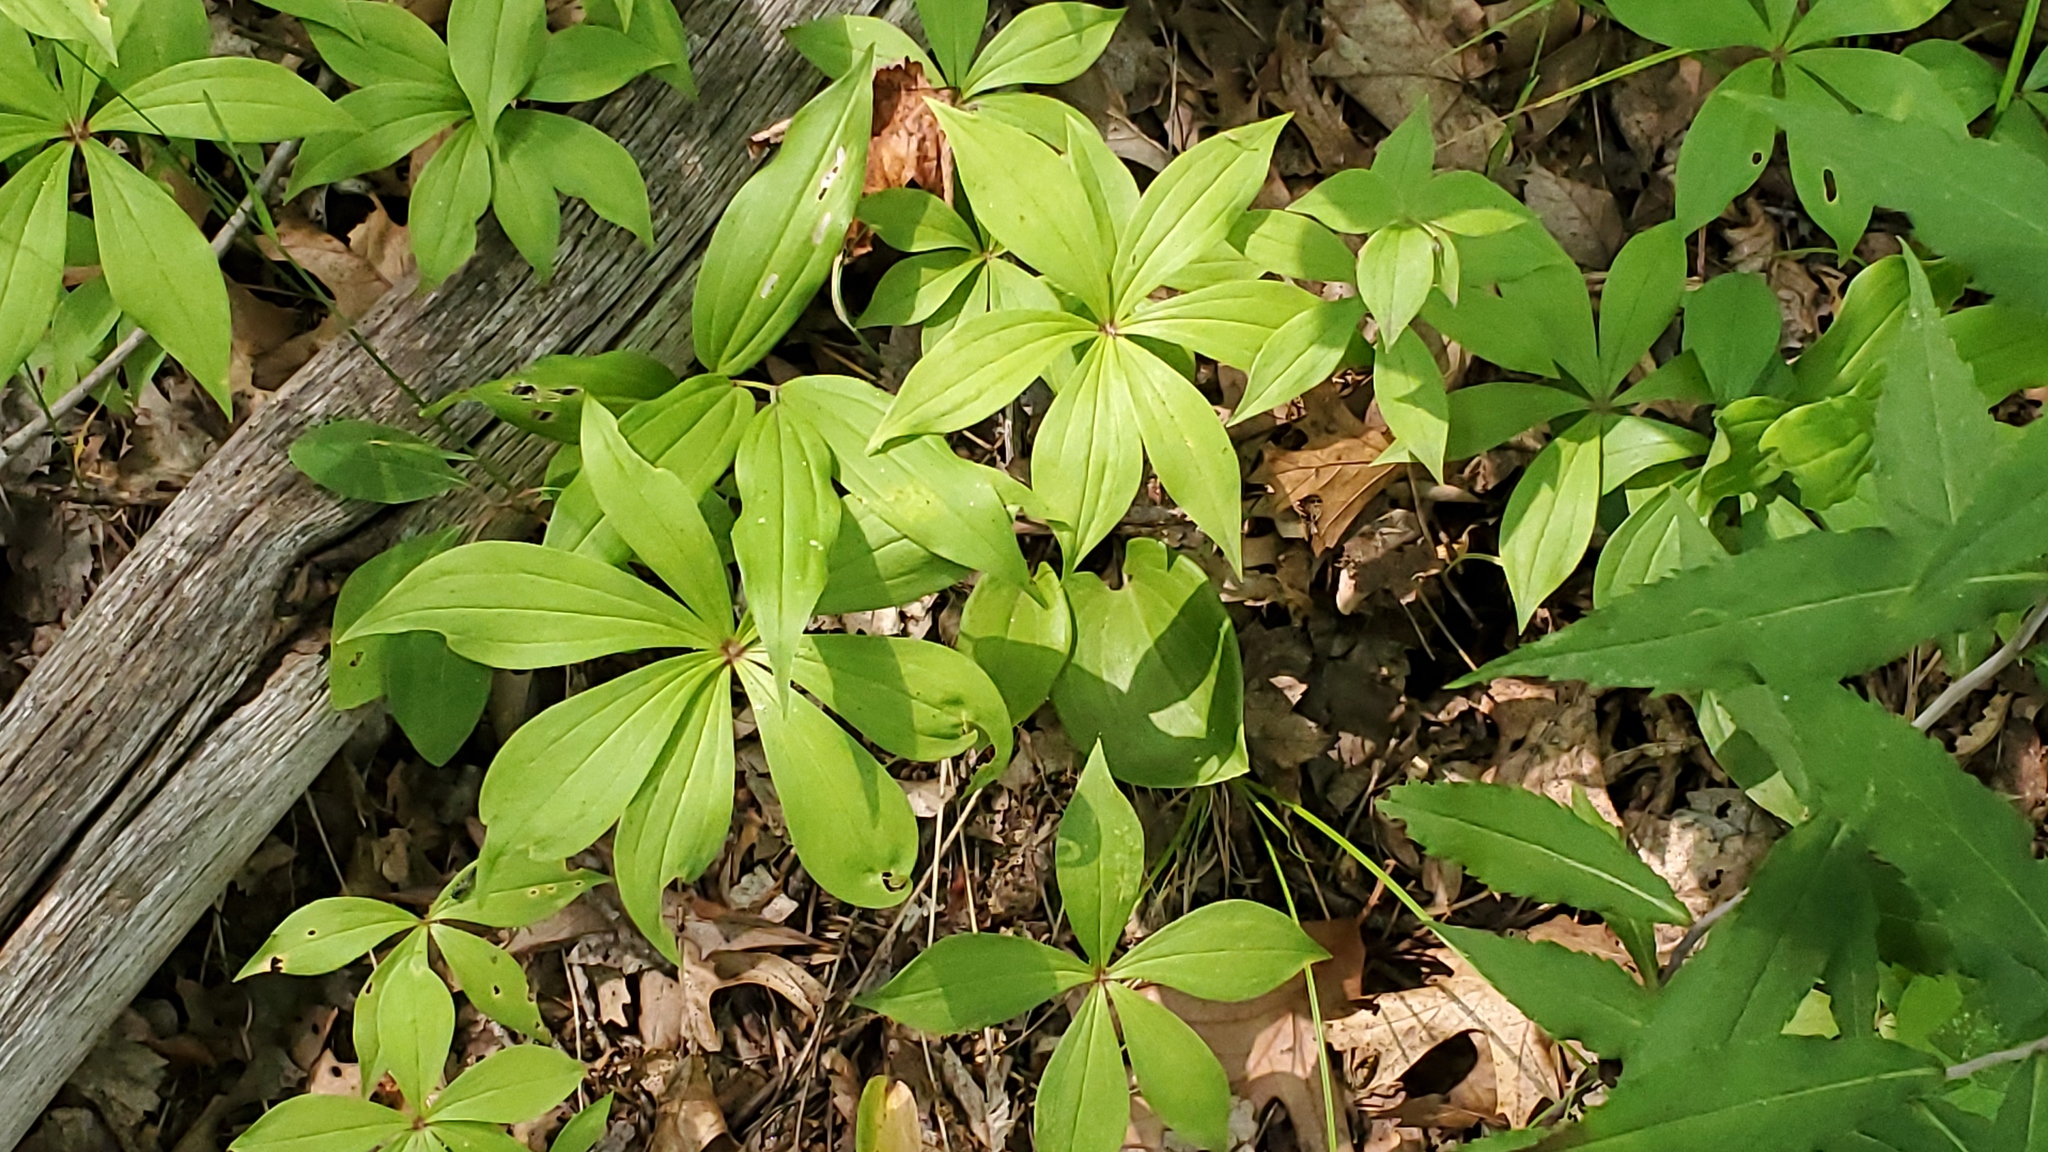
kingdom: Plantae
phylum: Tracheophyta
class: Liliopsida
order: Liliales
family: Liliaceae
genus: Medeola
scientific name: Medeola virginiana
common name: Indian cucumber-root
